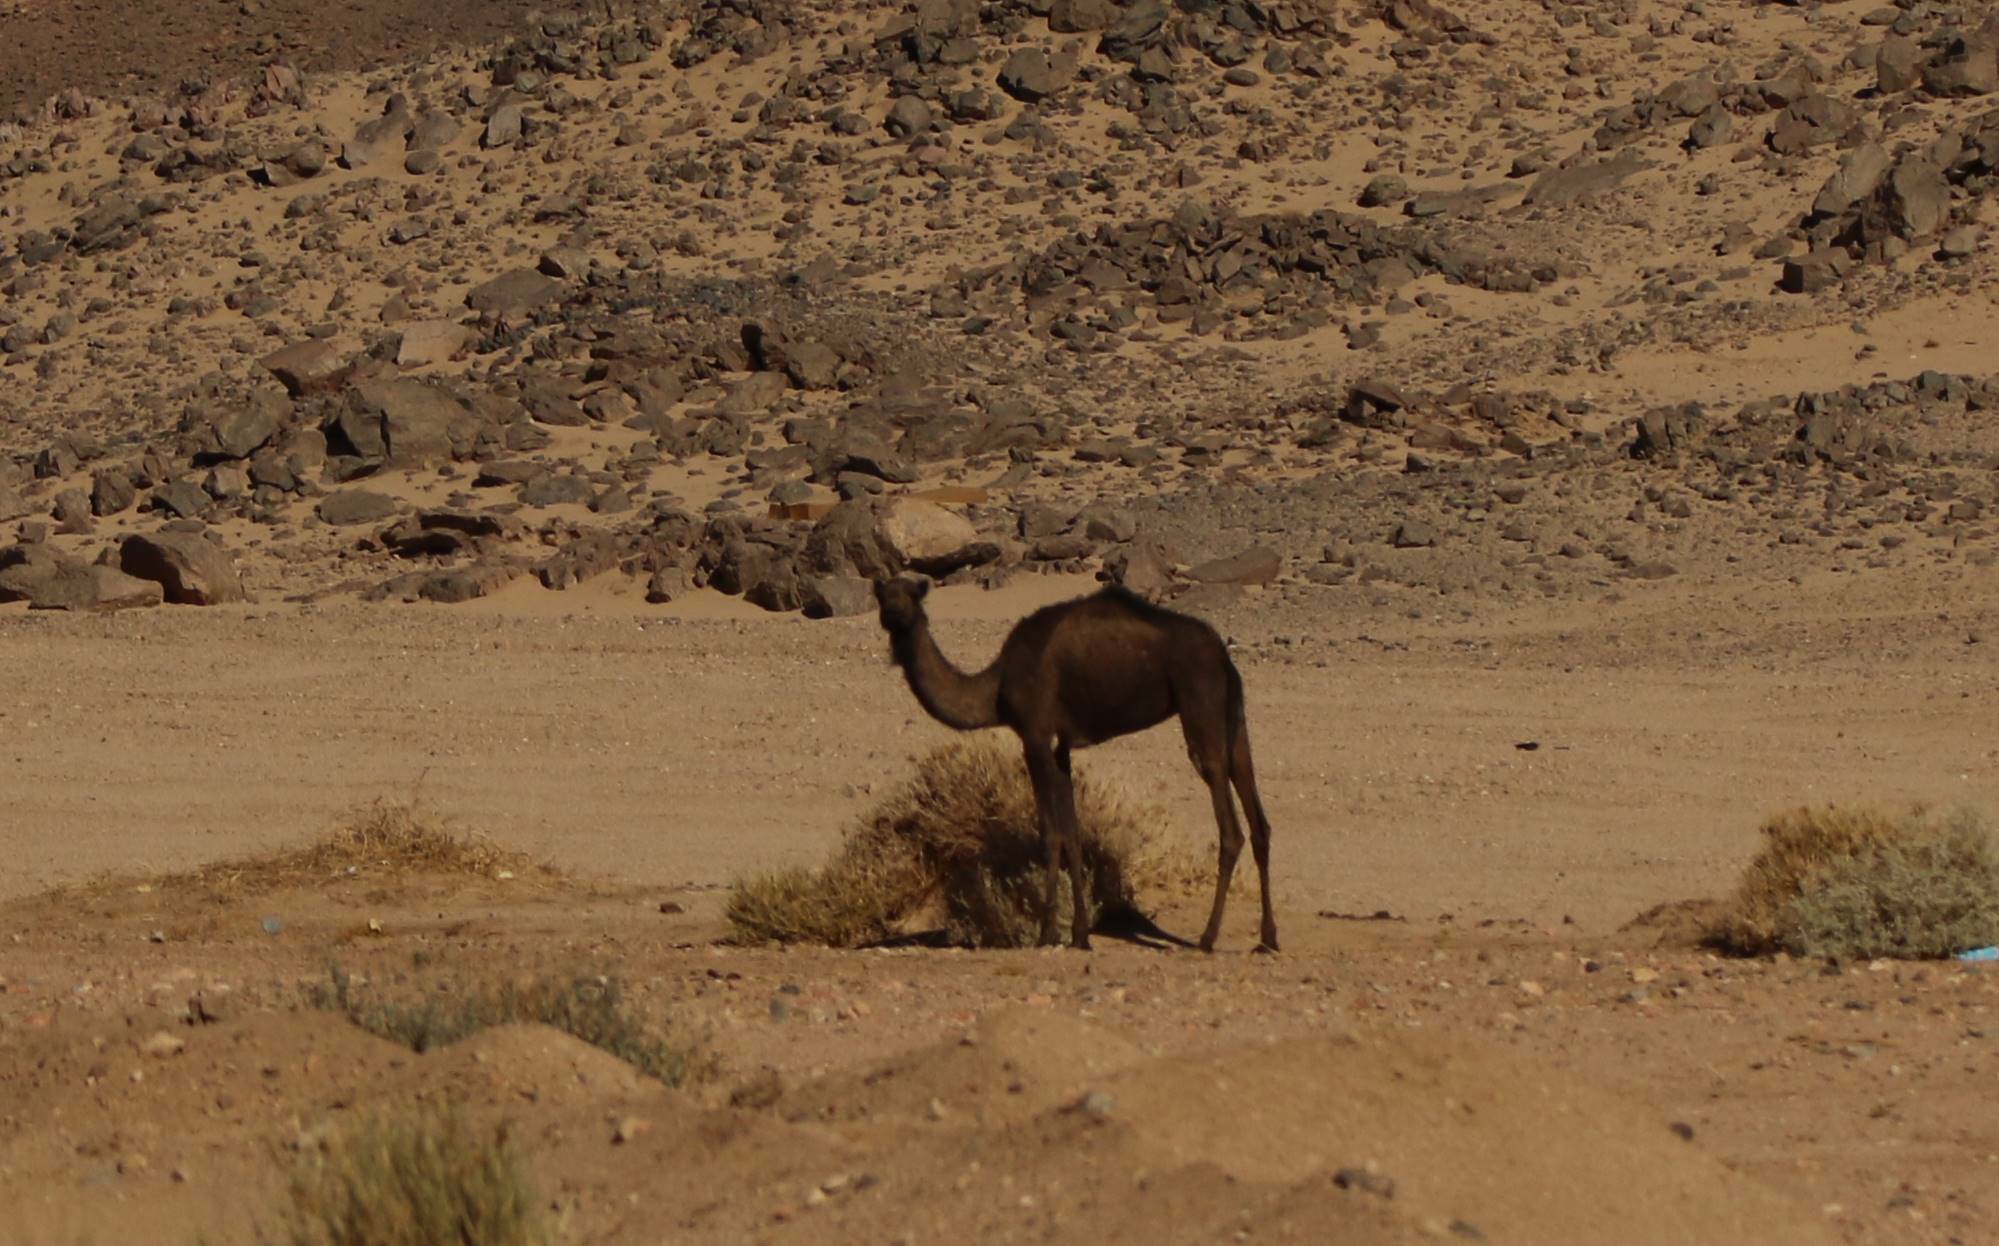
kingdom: Animalia
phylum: Chordata
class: Mammalia
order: Artiodactyla
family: Camelidae
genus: Camelus
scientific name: Camelus dromedarius
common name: One-humped camel
